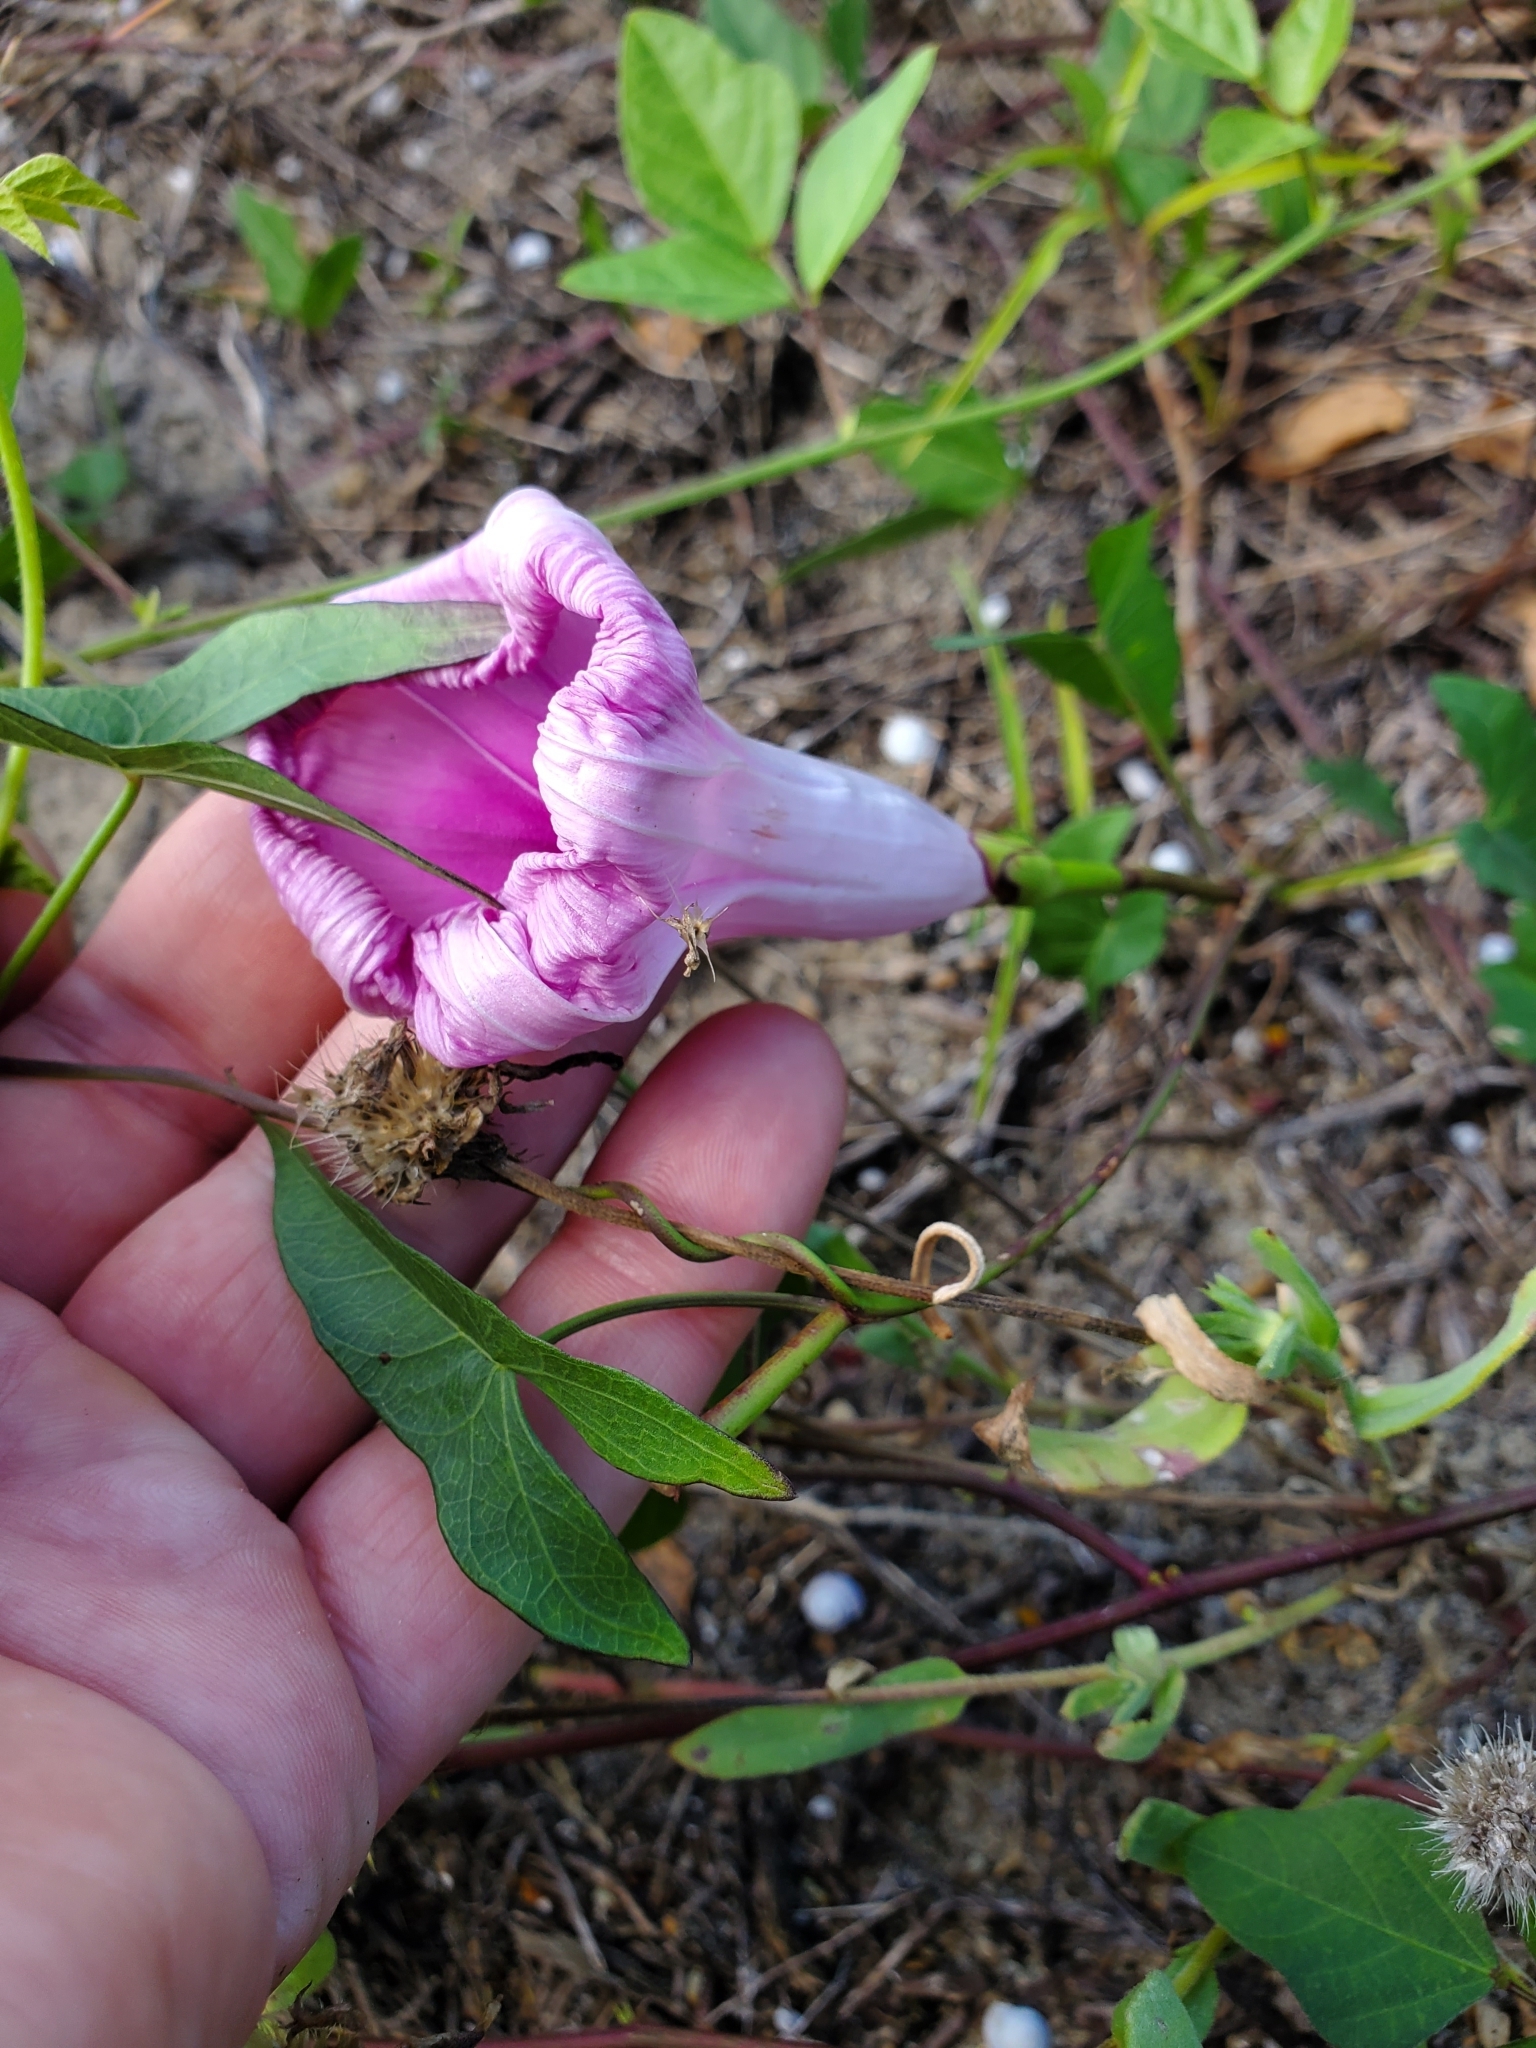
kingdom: Plantae
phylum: Tracheophyta
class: Magnoliopsida
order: Solanales
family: Convolvulaceae
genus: Ipomoea
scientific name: Ipomoea sagittata
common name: Saltmarsh morning glory
